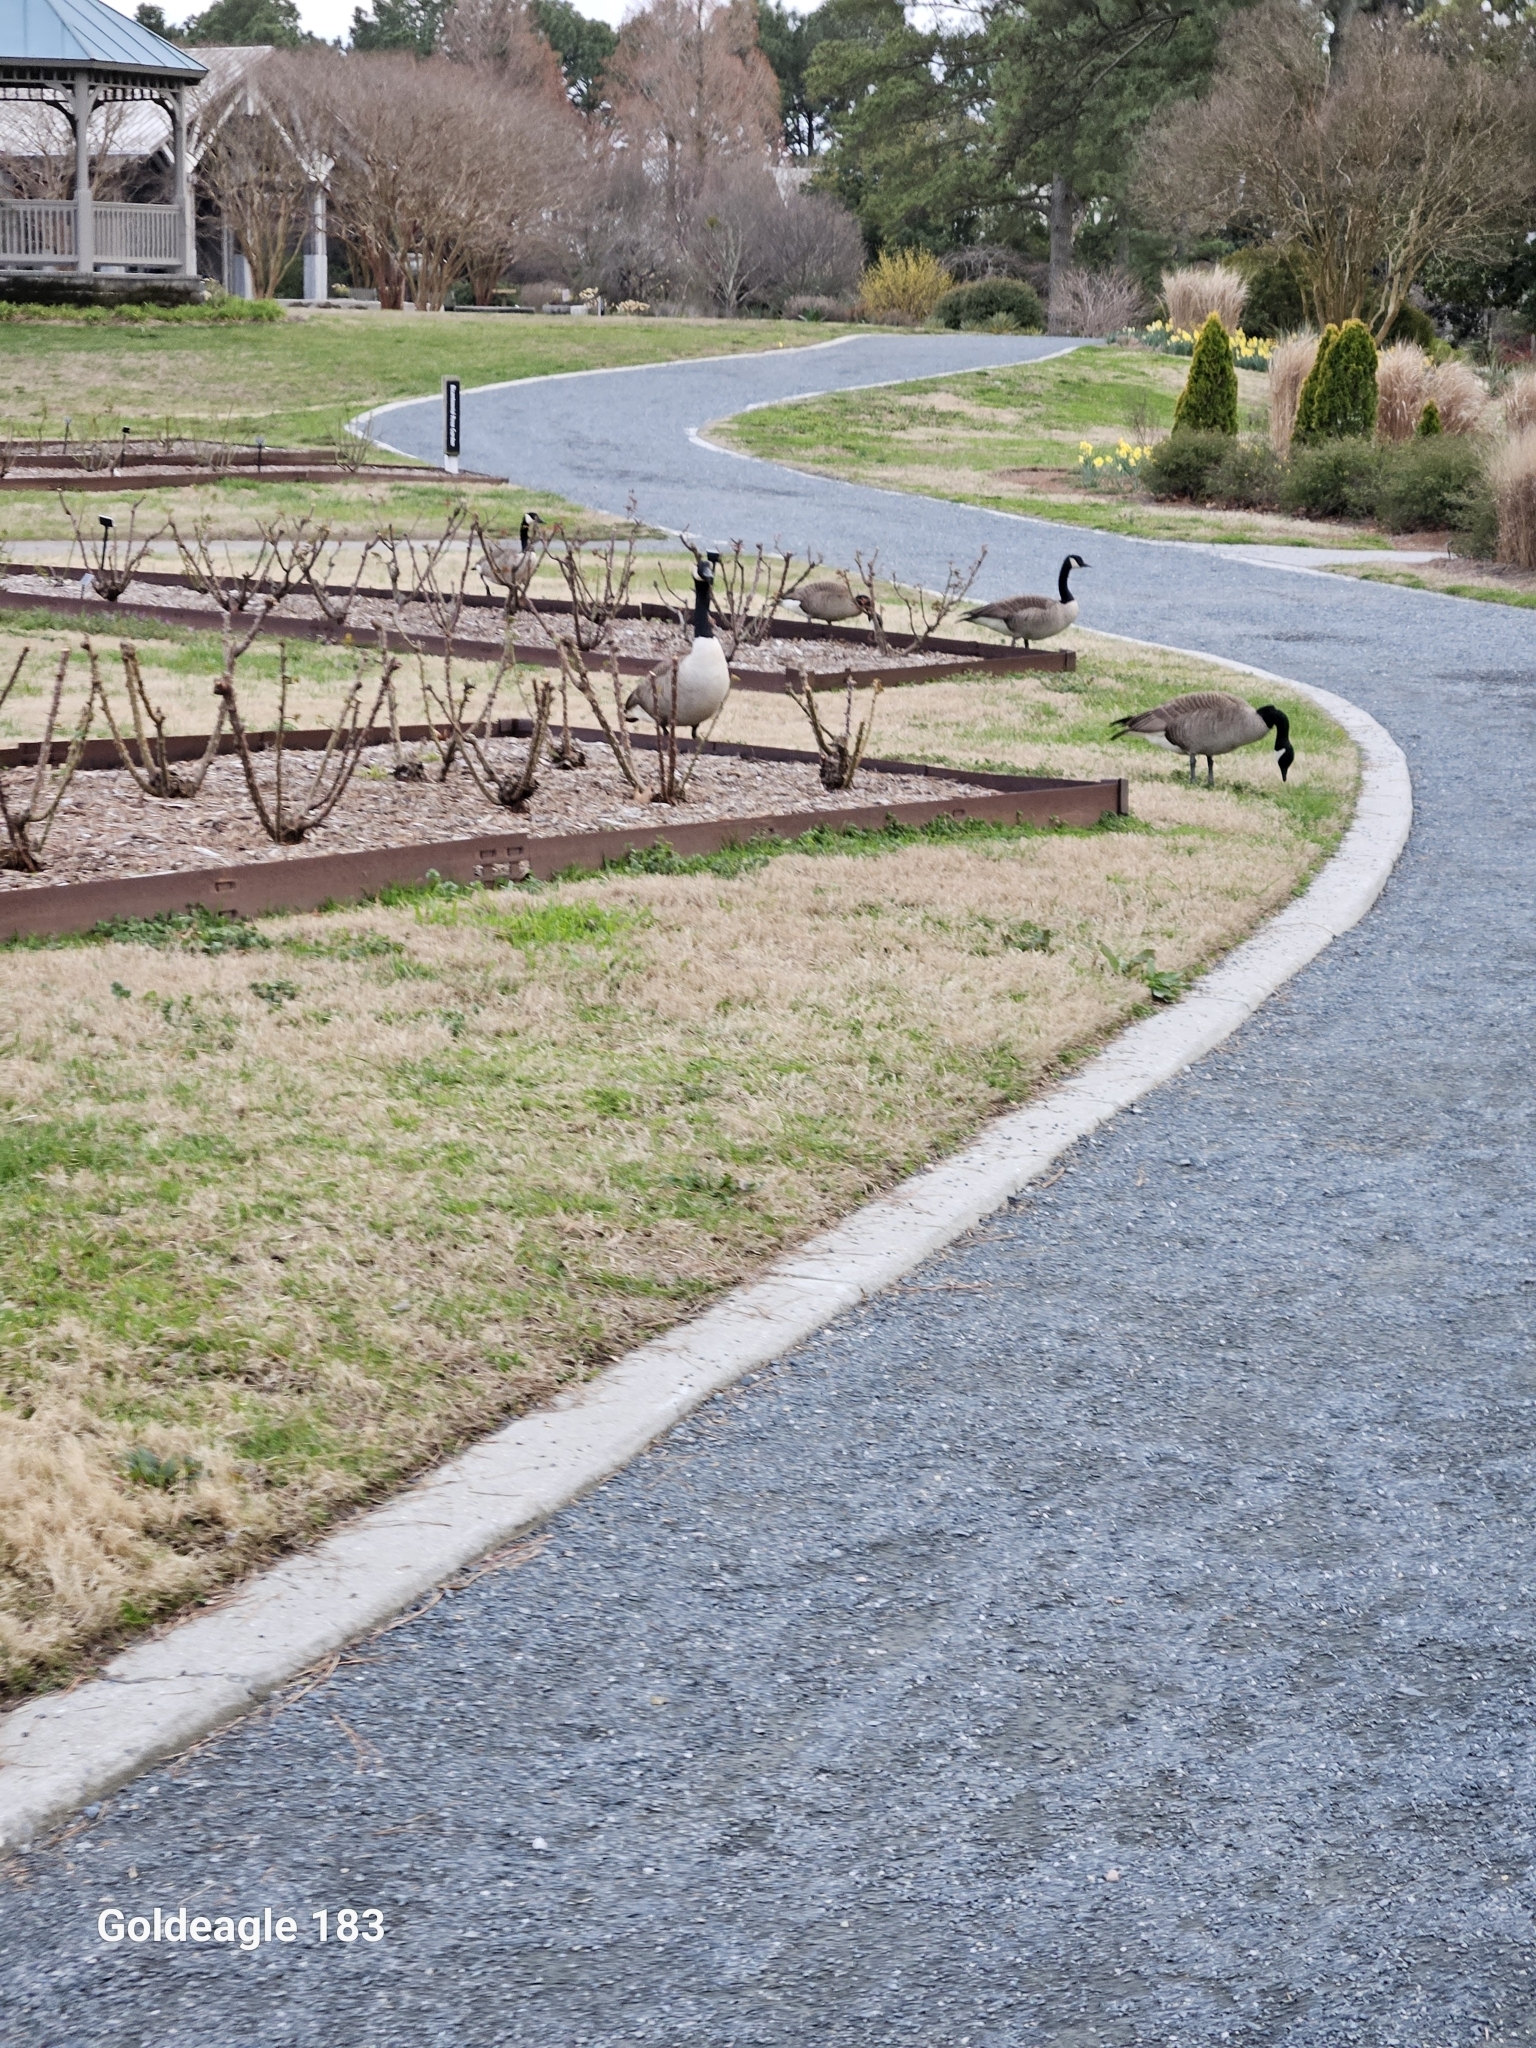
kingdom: Animalia
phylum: Chordata
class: Aves
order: Anseriformes
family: Anatidae
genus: Branta
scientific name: Branta canadensis
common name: Canada goose
